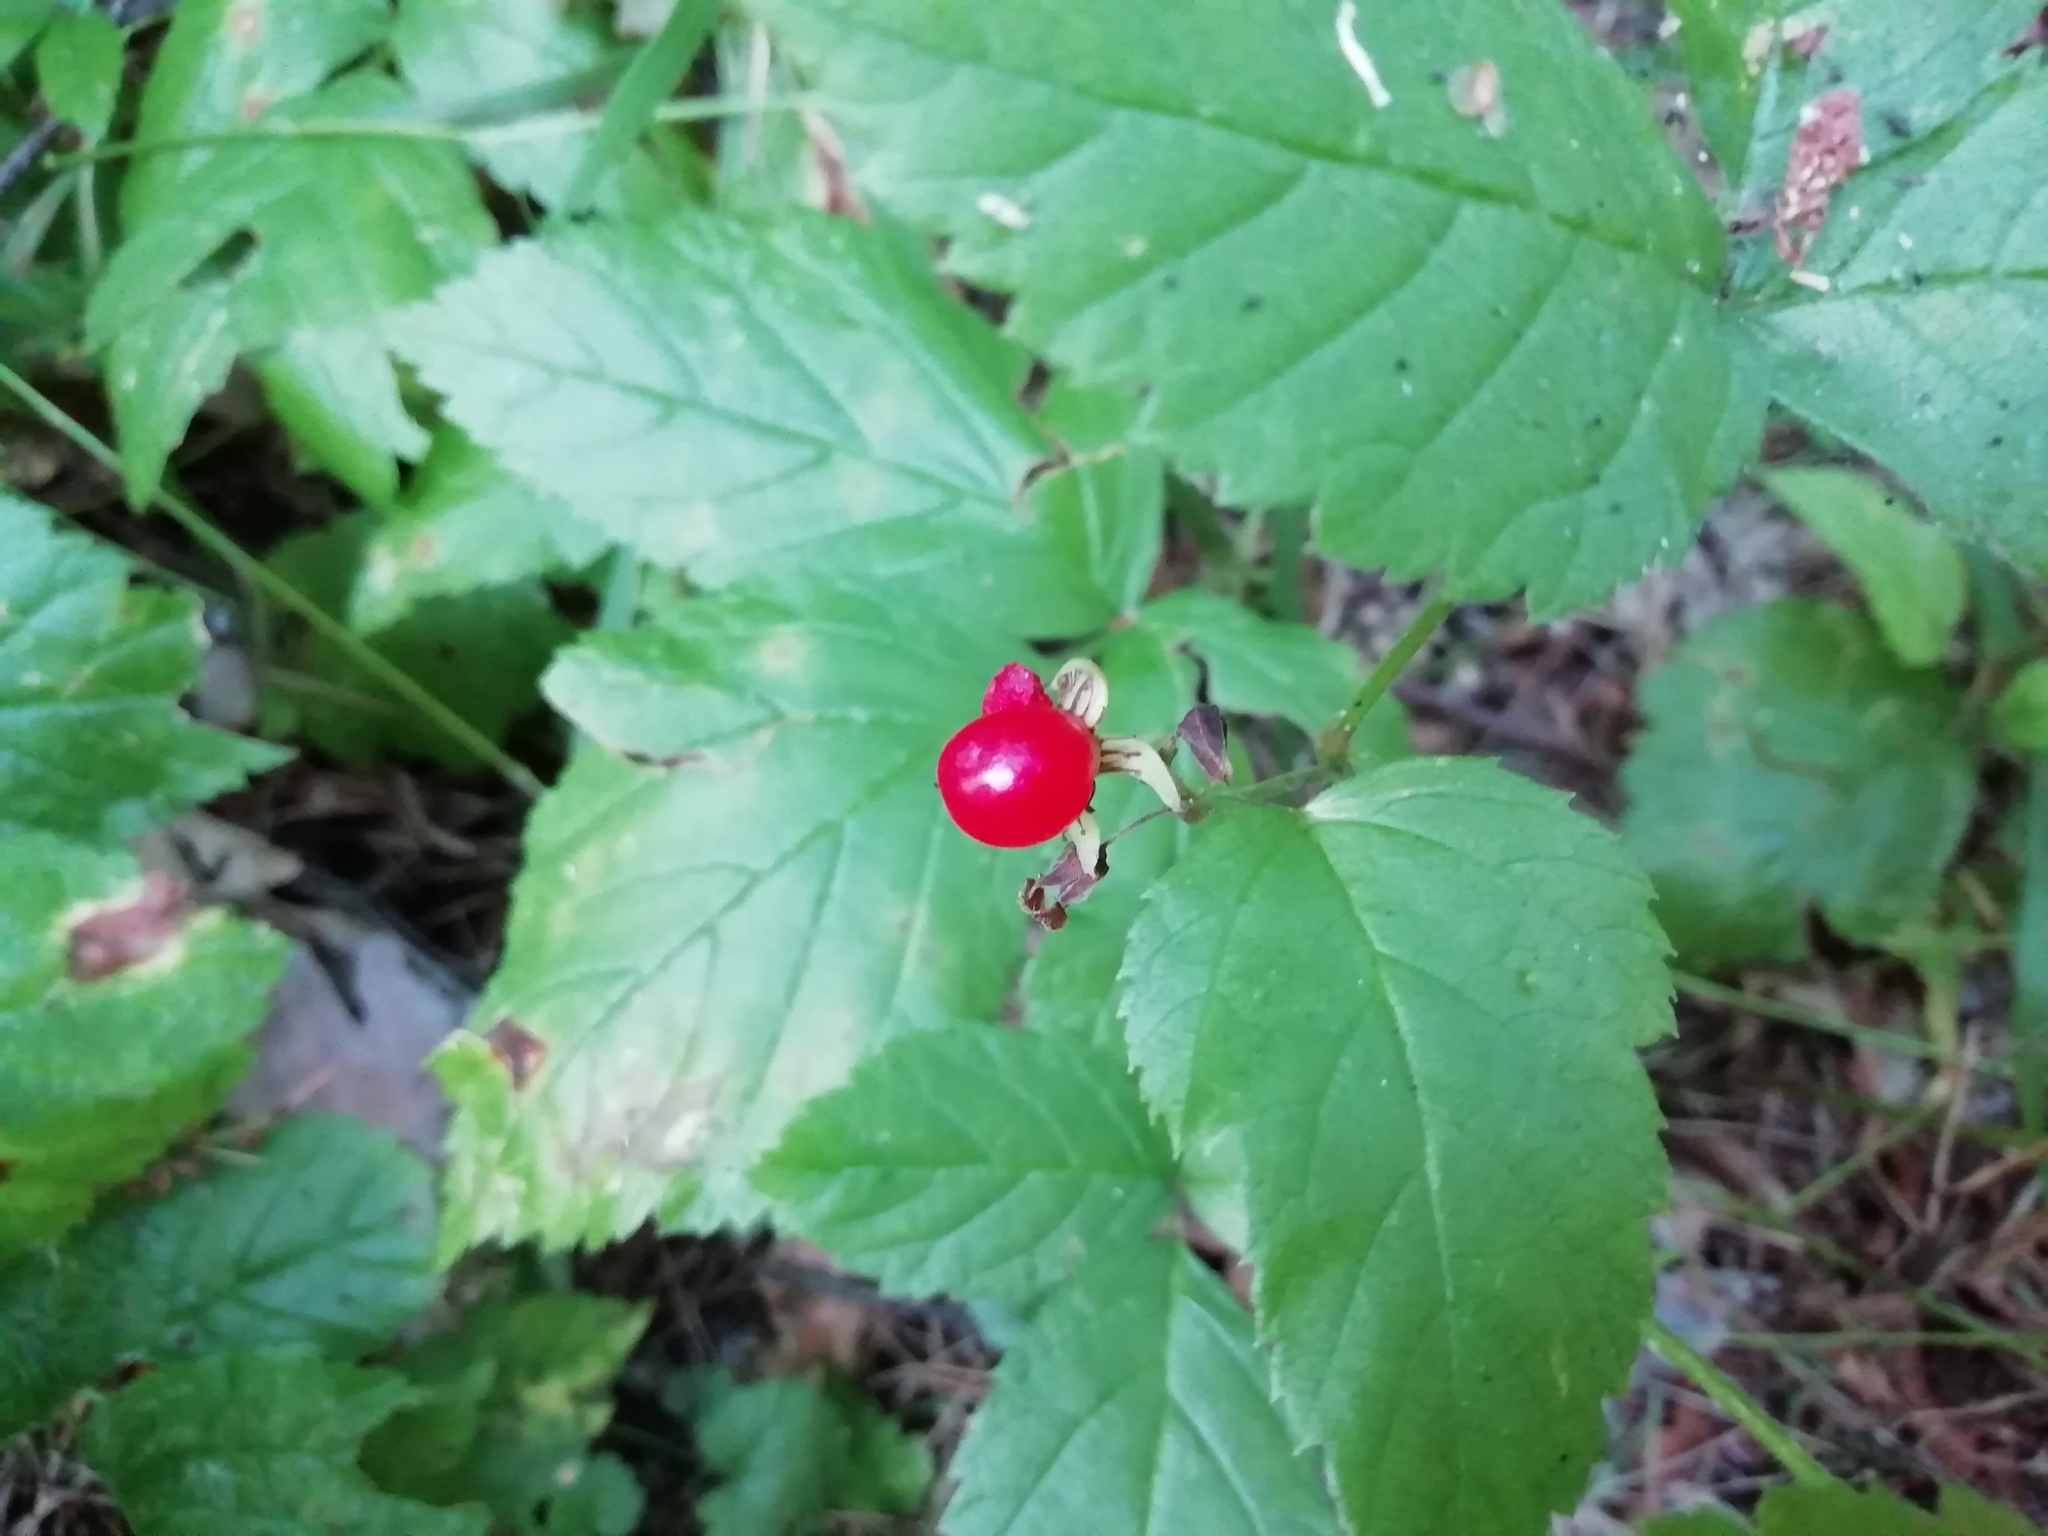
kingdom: Plantae
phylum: Tracheophyta
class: Magnoliopsida
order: Rosales
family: Rosaceae
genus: Rubus
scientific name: Rubus saxatilis
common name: Stone bramble
